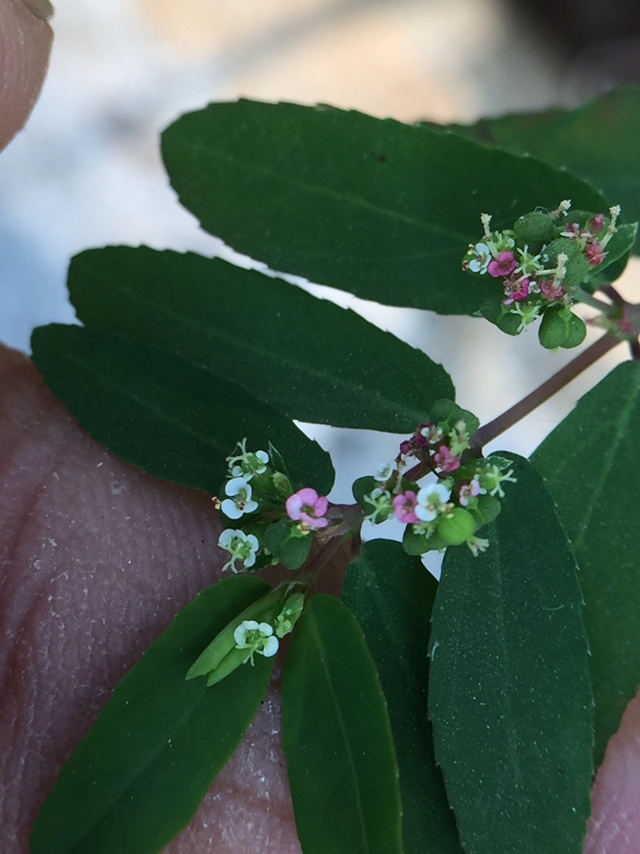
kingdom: Plantae
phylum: Tracheophyta
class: Magnoliopsida
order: Malpighiales
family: Euphorbiaceae
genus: Euphorbia
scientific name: Euphorbia hypericifolia
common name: Graceful sandmat
